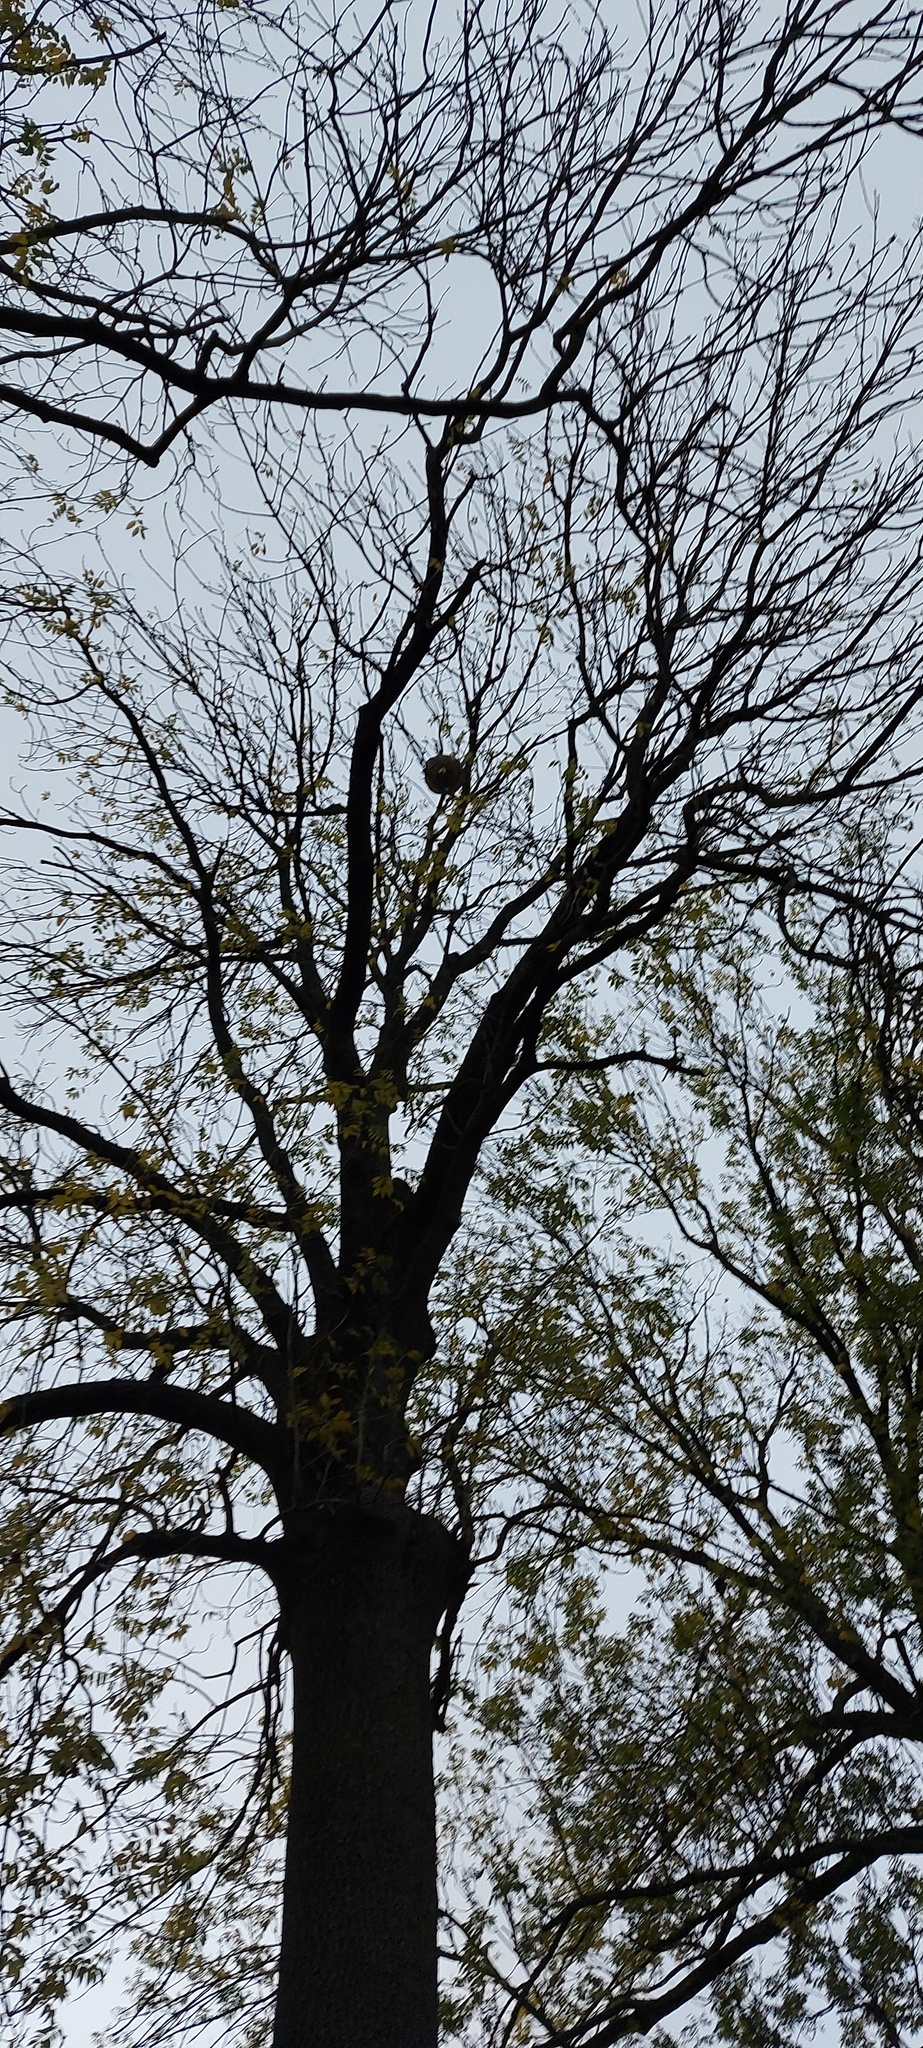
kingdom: Animalia
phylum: Arthropoda
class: Insecta
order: Hymenoptera
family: Vespidae
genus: Vespa
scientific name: Vespa velutina
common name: Asian hornet
